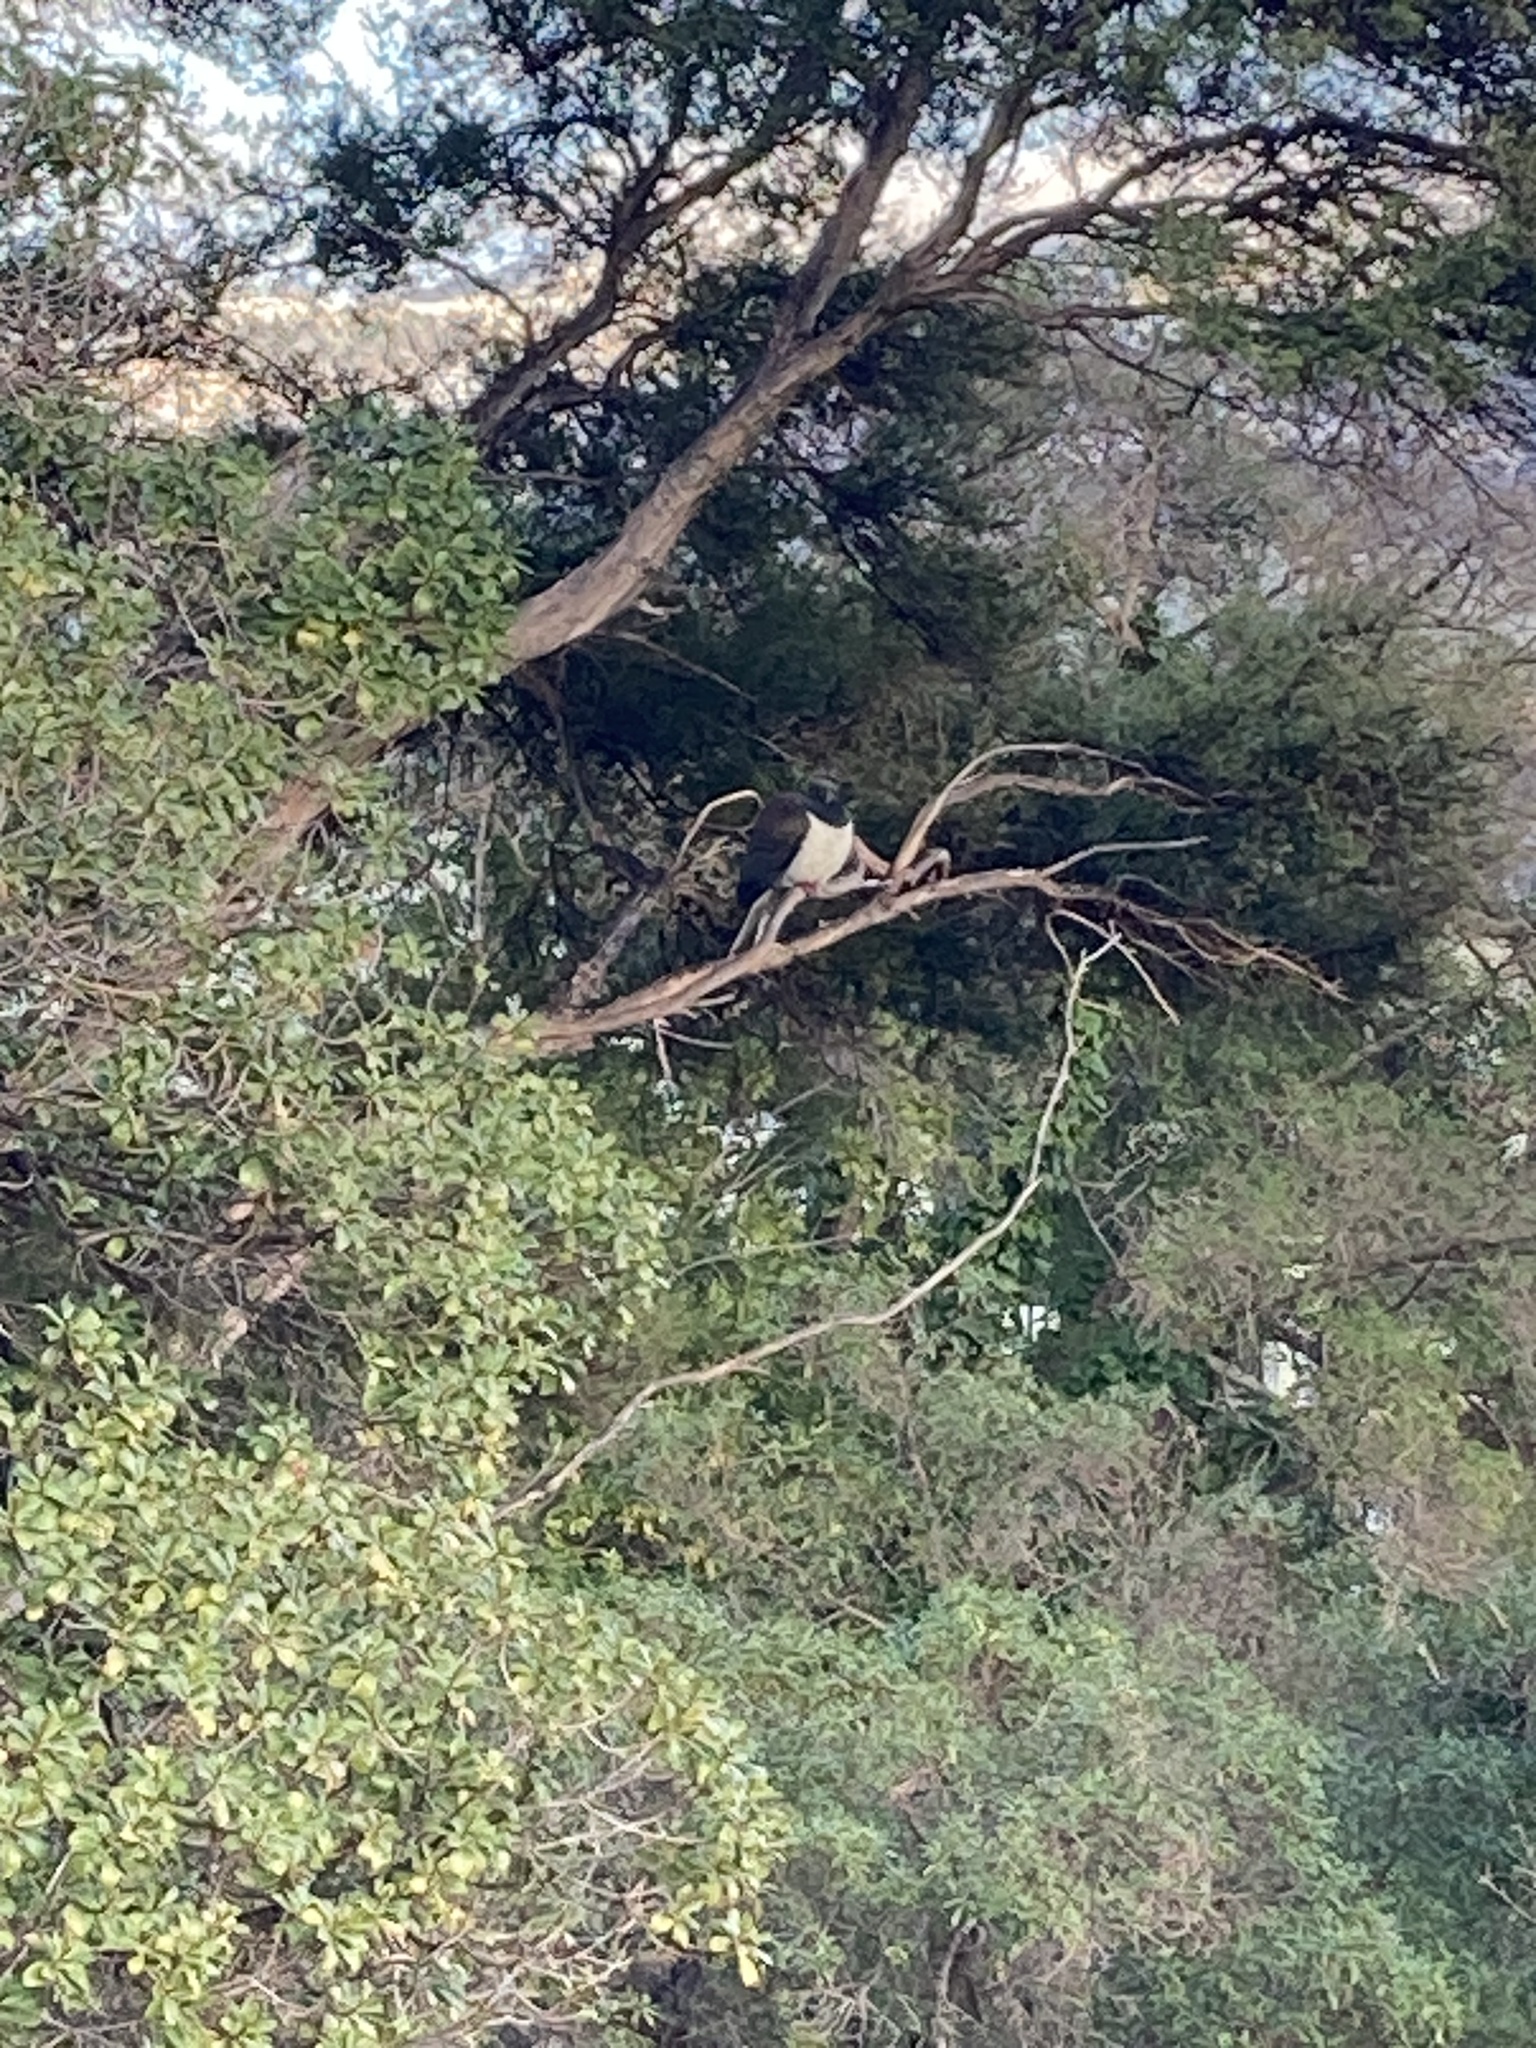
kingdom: Animalia
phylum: Chordata
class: Aves
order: Columbiformes
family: Columbidae
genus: Hemiphaga
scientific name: Hemiphaga novaeseelandiae
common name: New zealand pigeon
